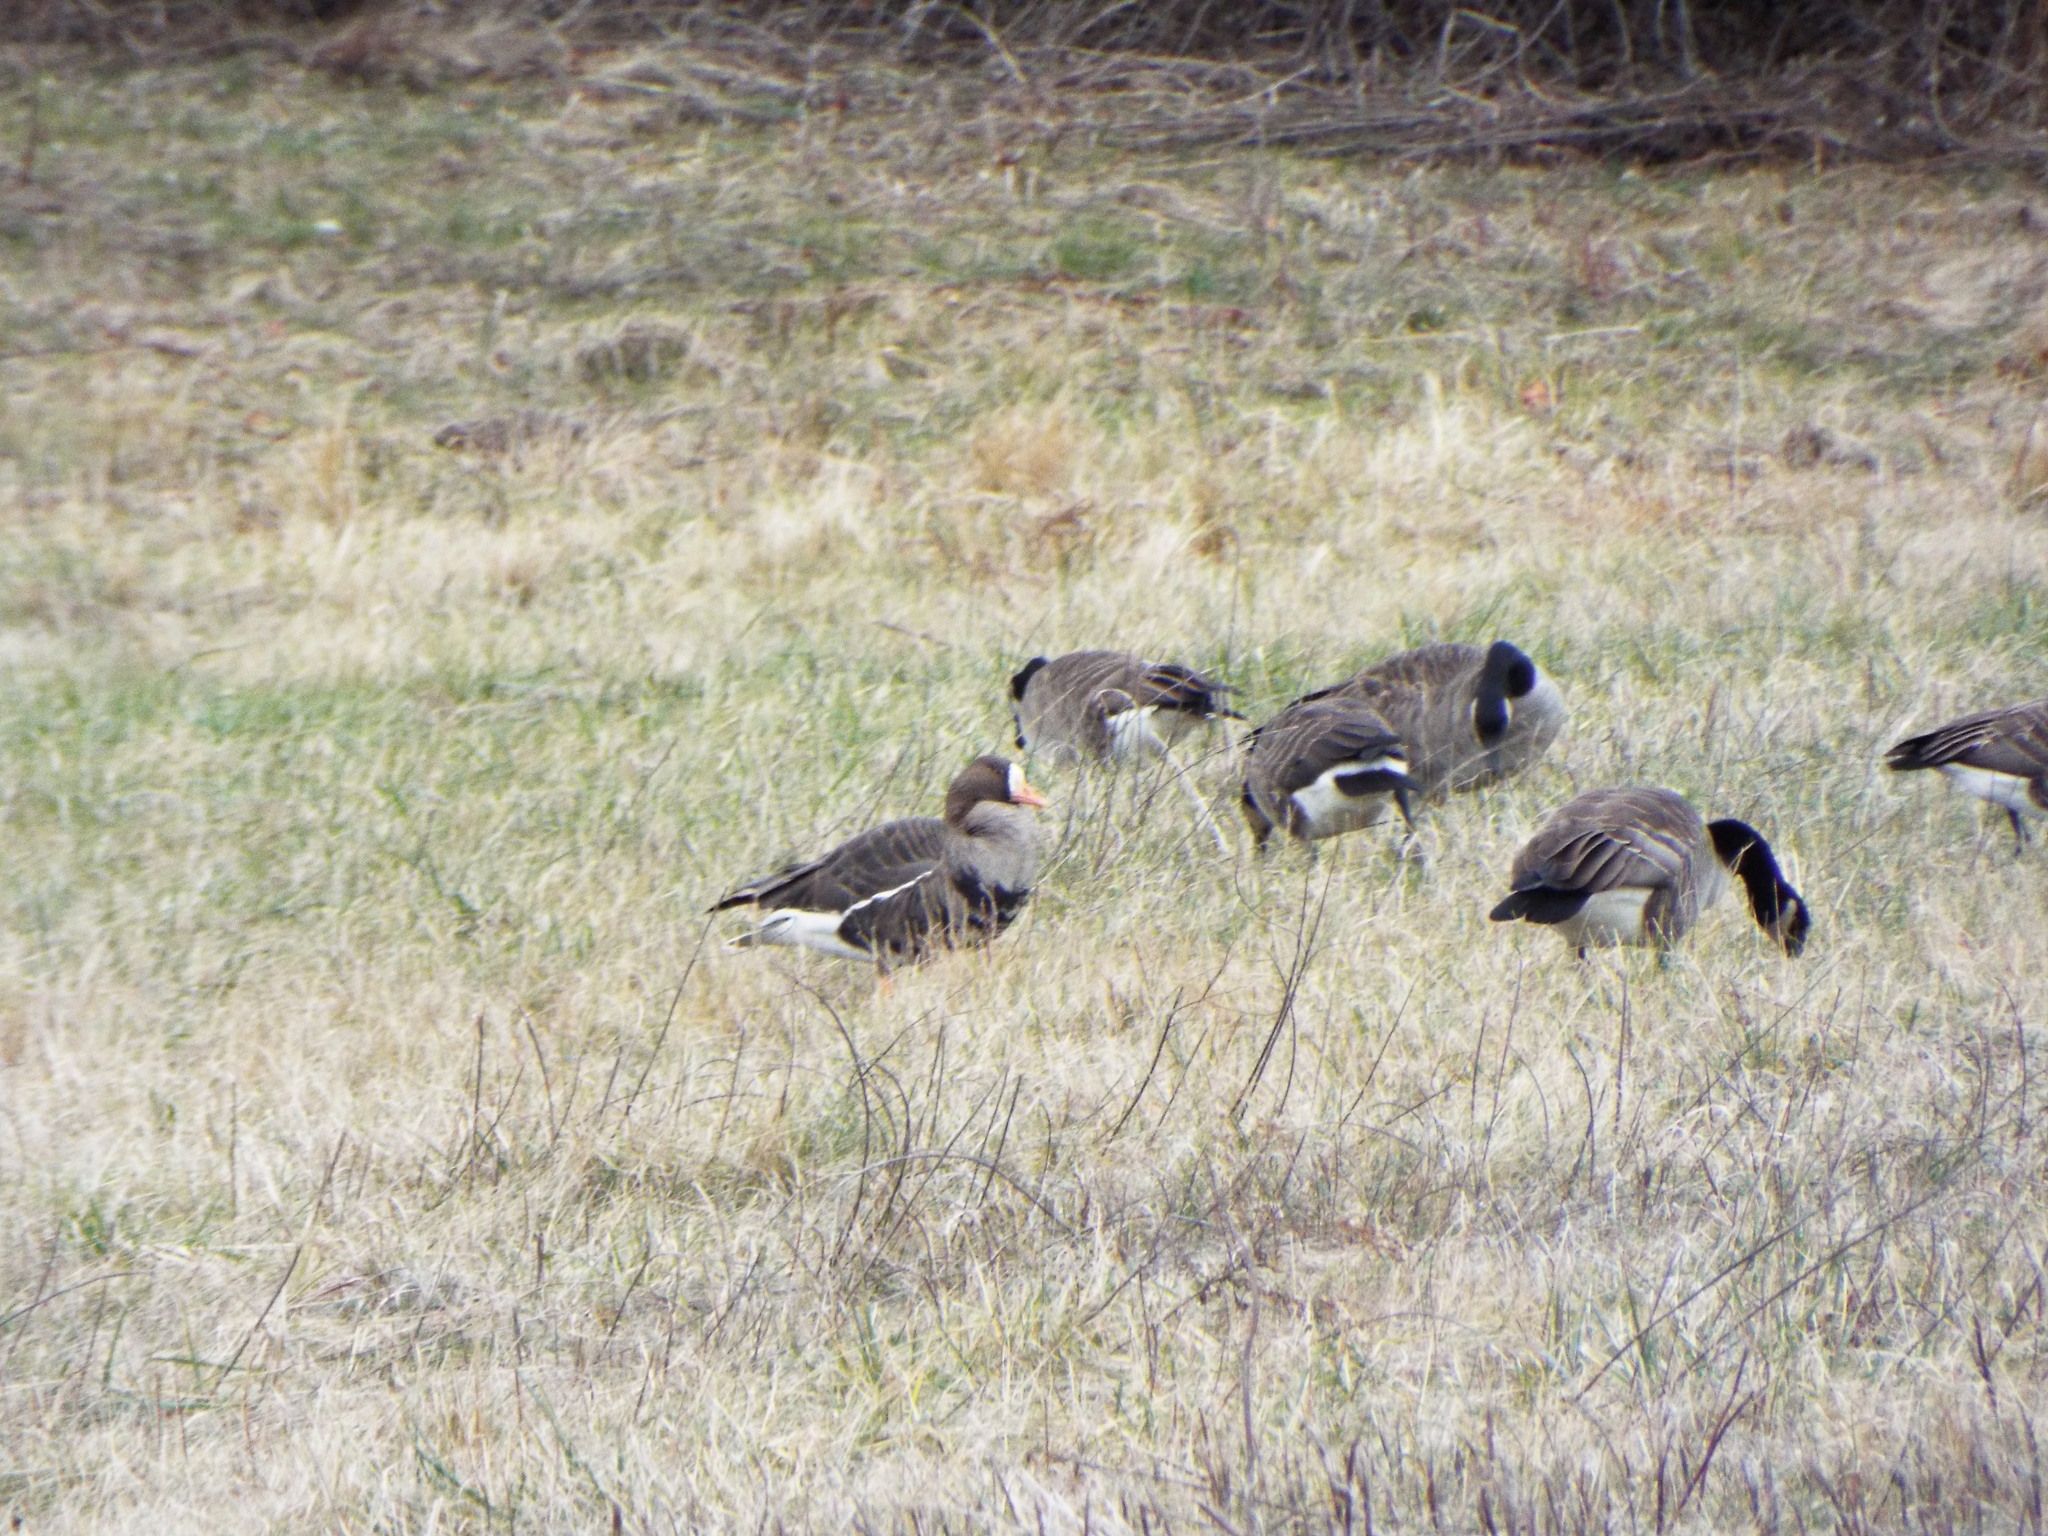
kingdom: Animalia
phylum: Chordata
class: Aves
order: Anseriformes
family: Anatidae
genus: Anser
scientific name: Anser albifrons
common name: Greater white-fronted goose
